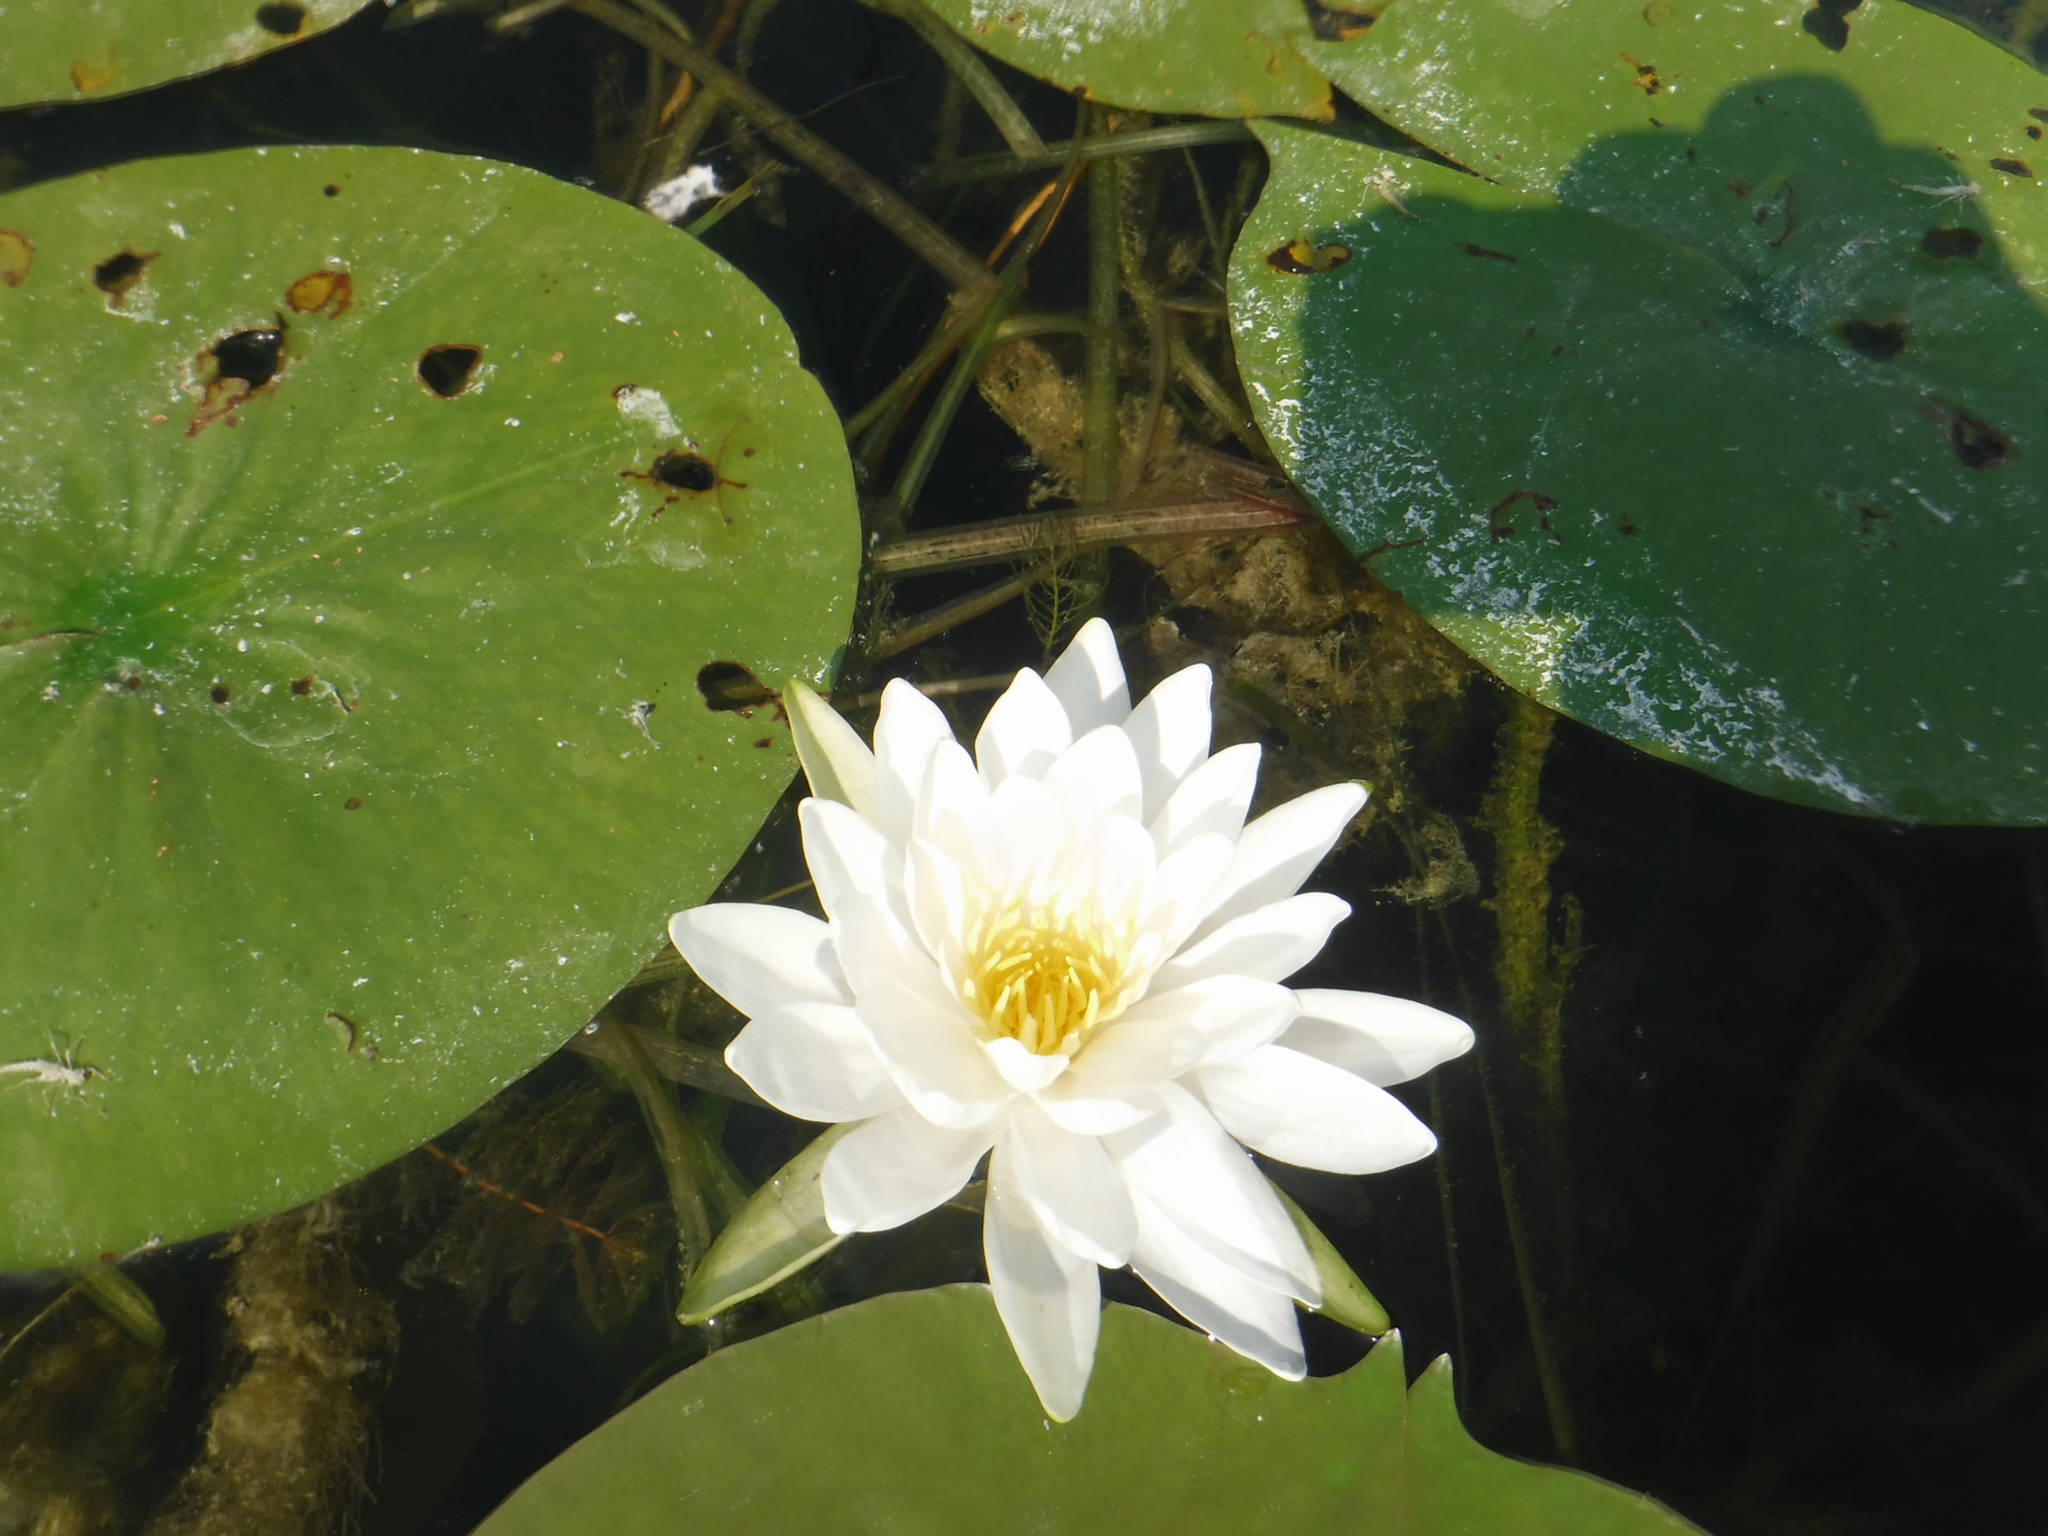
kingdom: Plantae
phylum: Tracheophyta
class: Magnoliopsida
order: Nymphaeales
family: Nymphaeaceae
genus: Nymphaea
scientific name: Nymphaea odorata
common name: Fragrant water-lily
